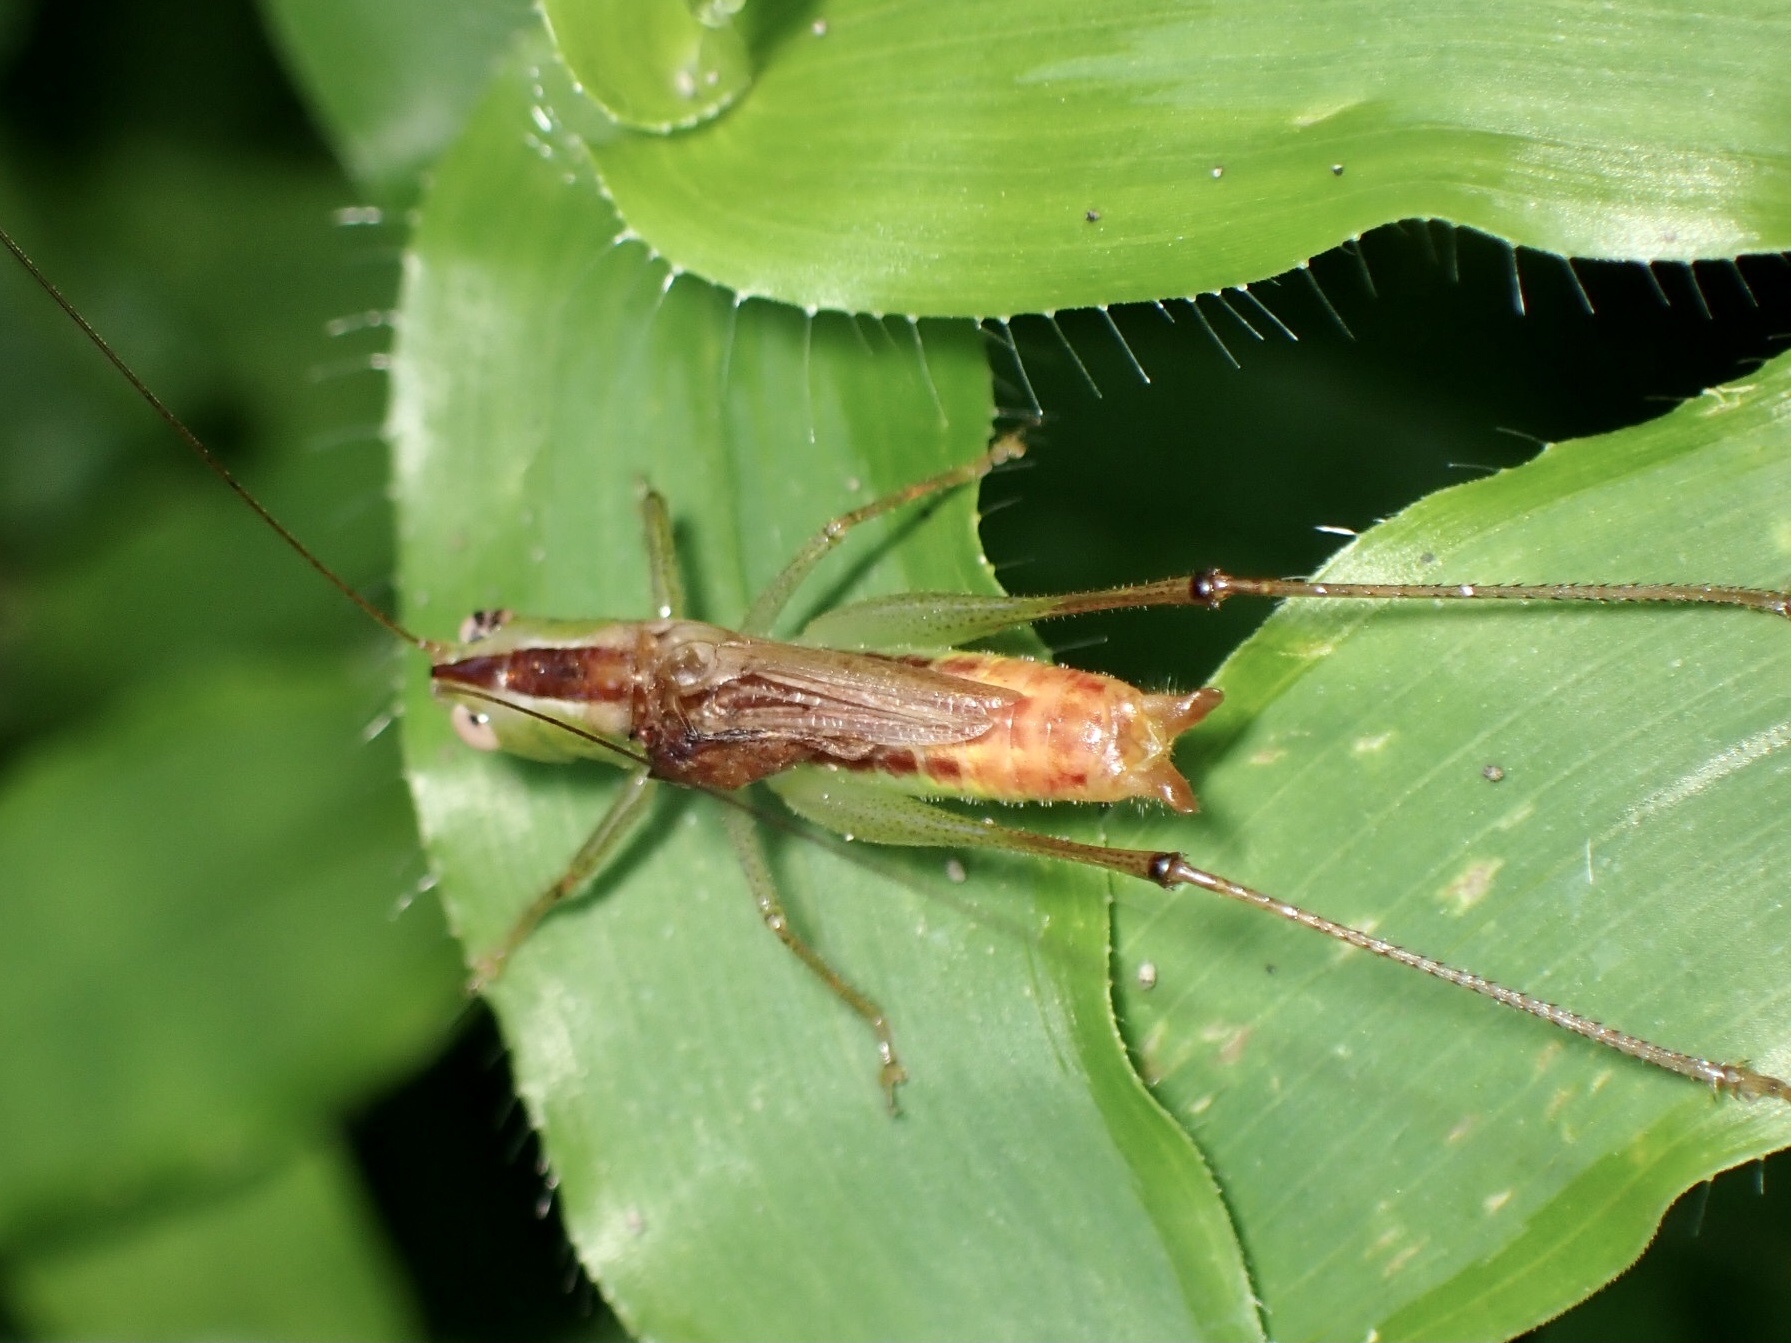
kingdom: Animalia
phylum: Arthropoda
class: Insecta
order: Orthoptera
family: Tettigoniidae
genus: Conocephalus
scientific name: Conocephalus brevipennis
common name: Short-winged meadow katydid
